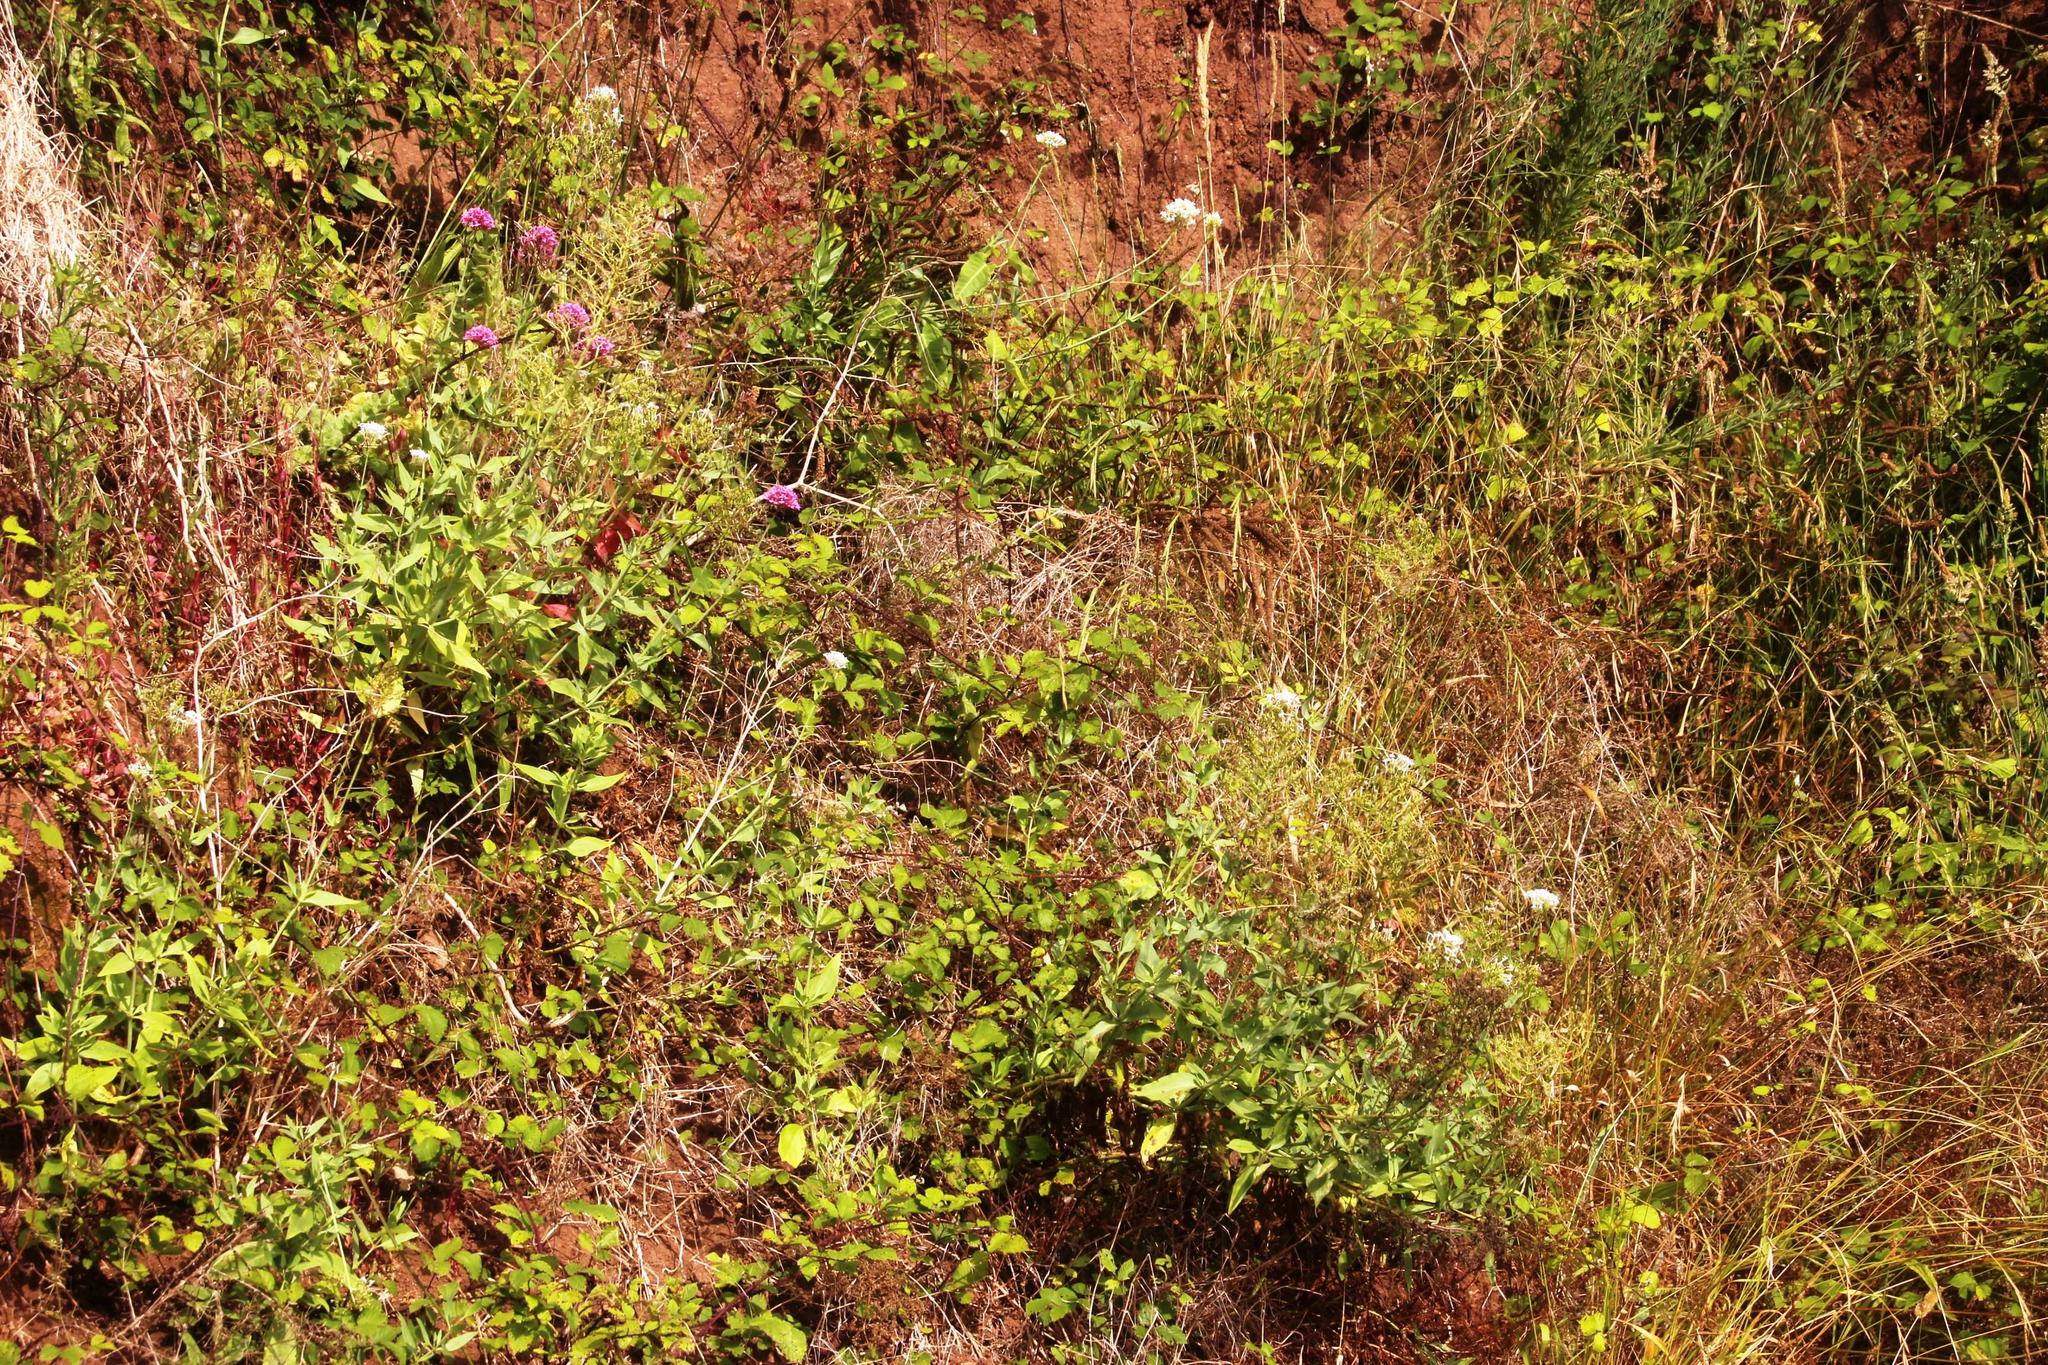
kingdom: Plantae
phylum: Tracheophyta
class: Magnoliopsida
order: Dipsacales
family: Caprifoliaceae
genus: Centranthus
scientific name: Centranthus ruber
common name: Red valerian
